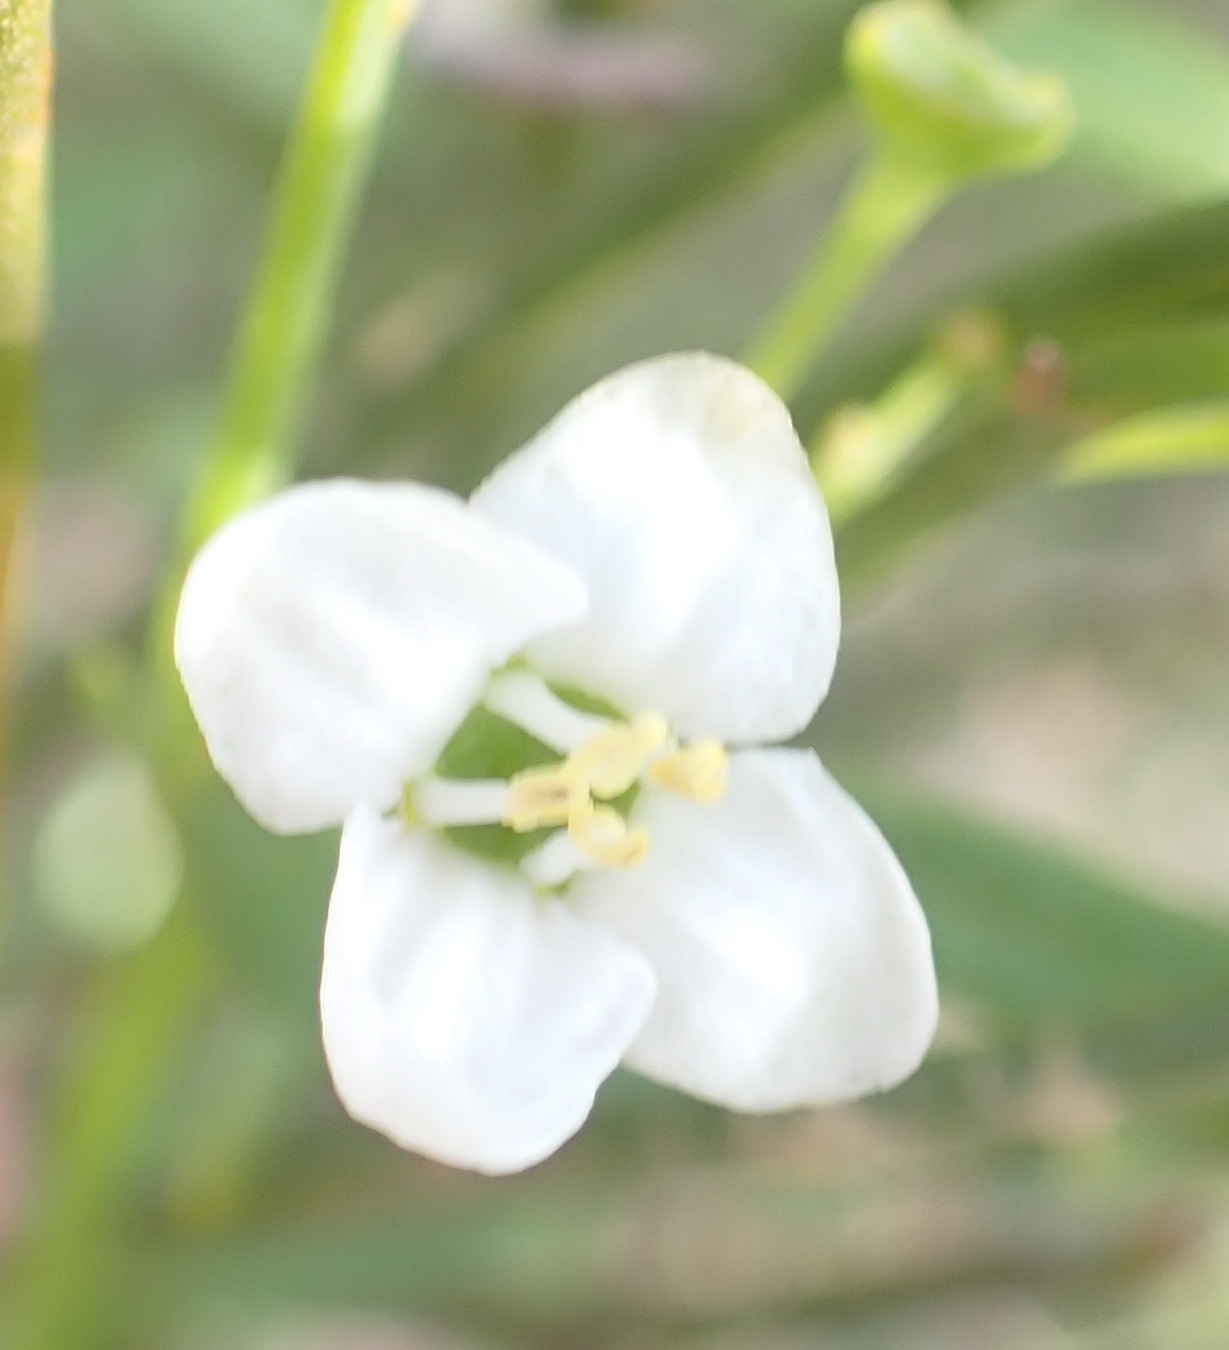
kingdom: Plantae
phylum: Tracheophyta
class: Magnoliopsida
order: Solanales
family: Montiniaceae
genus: Montinia
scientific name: Montinia caryophyllacea
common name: Wild clove-bush
